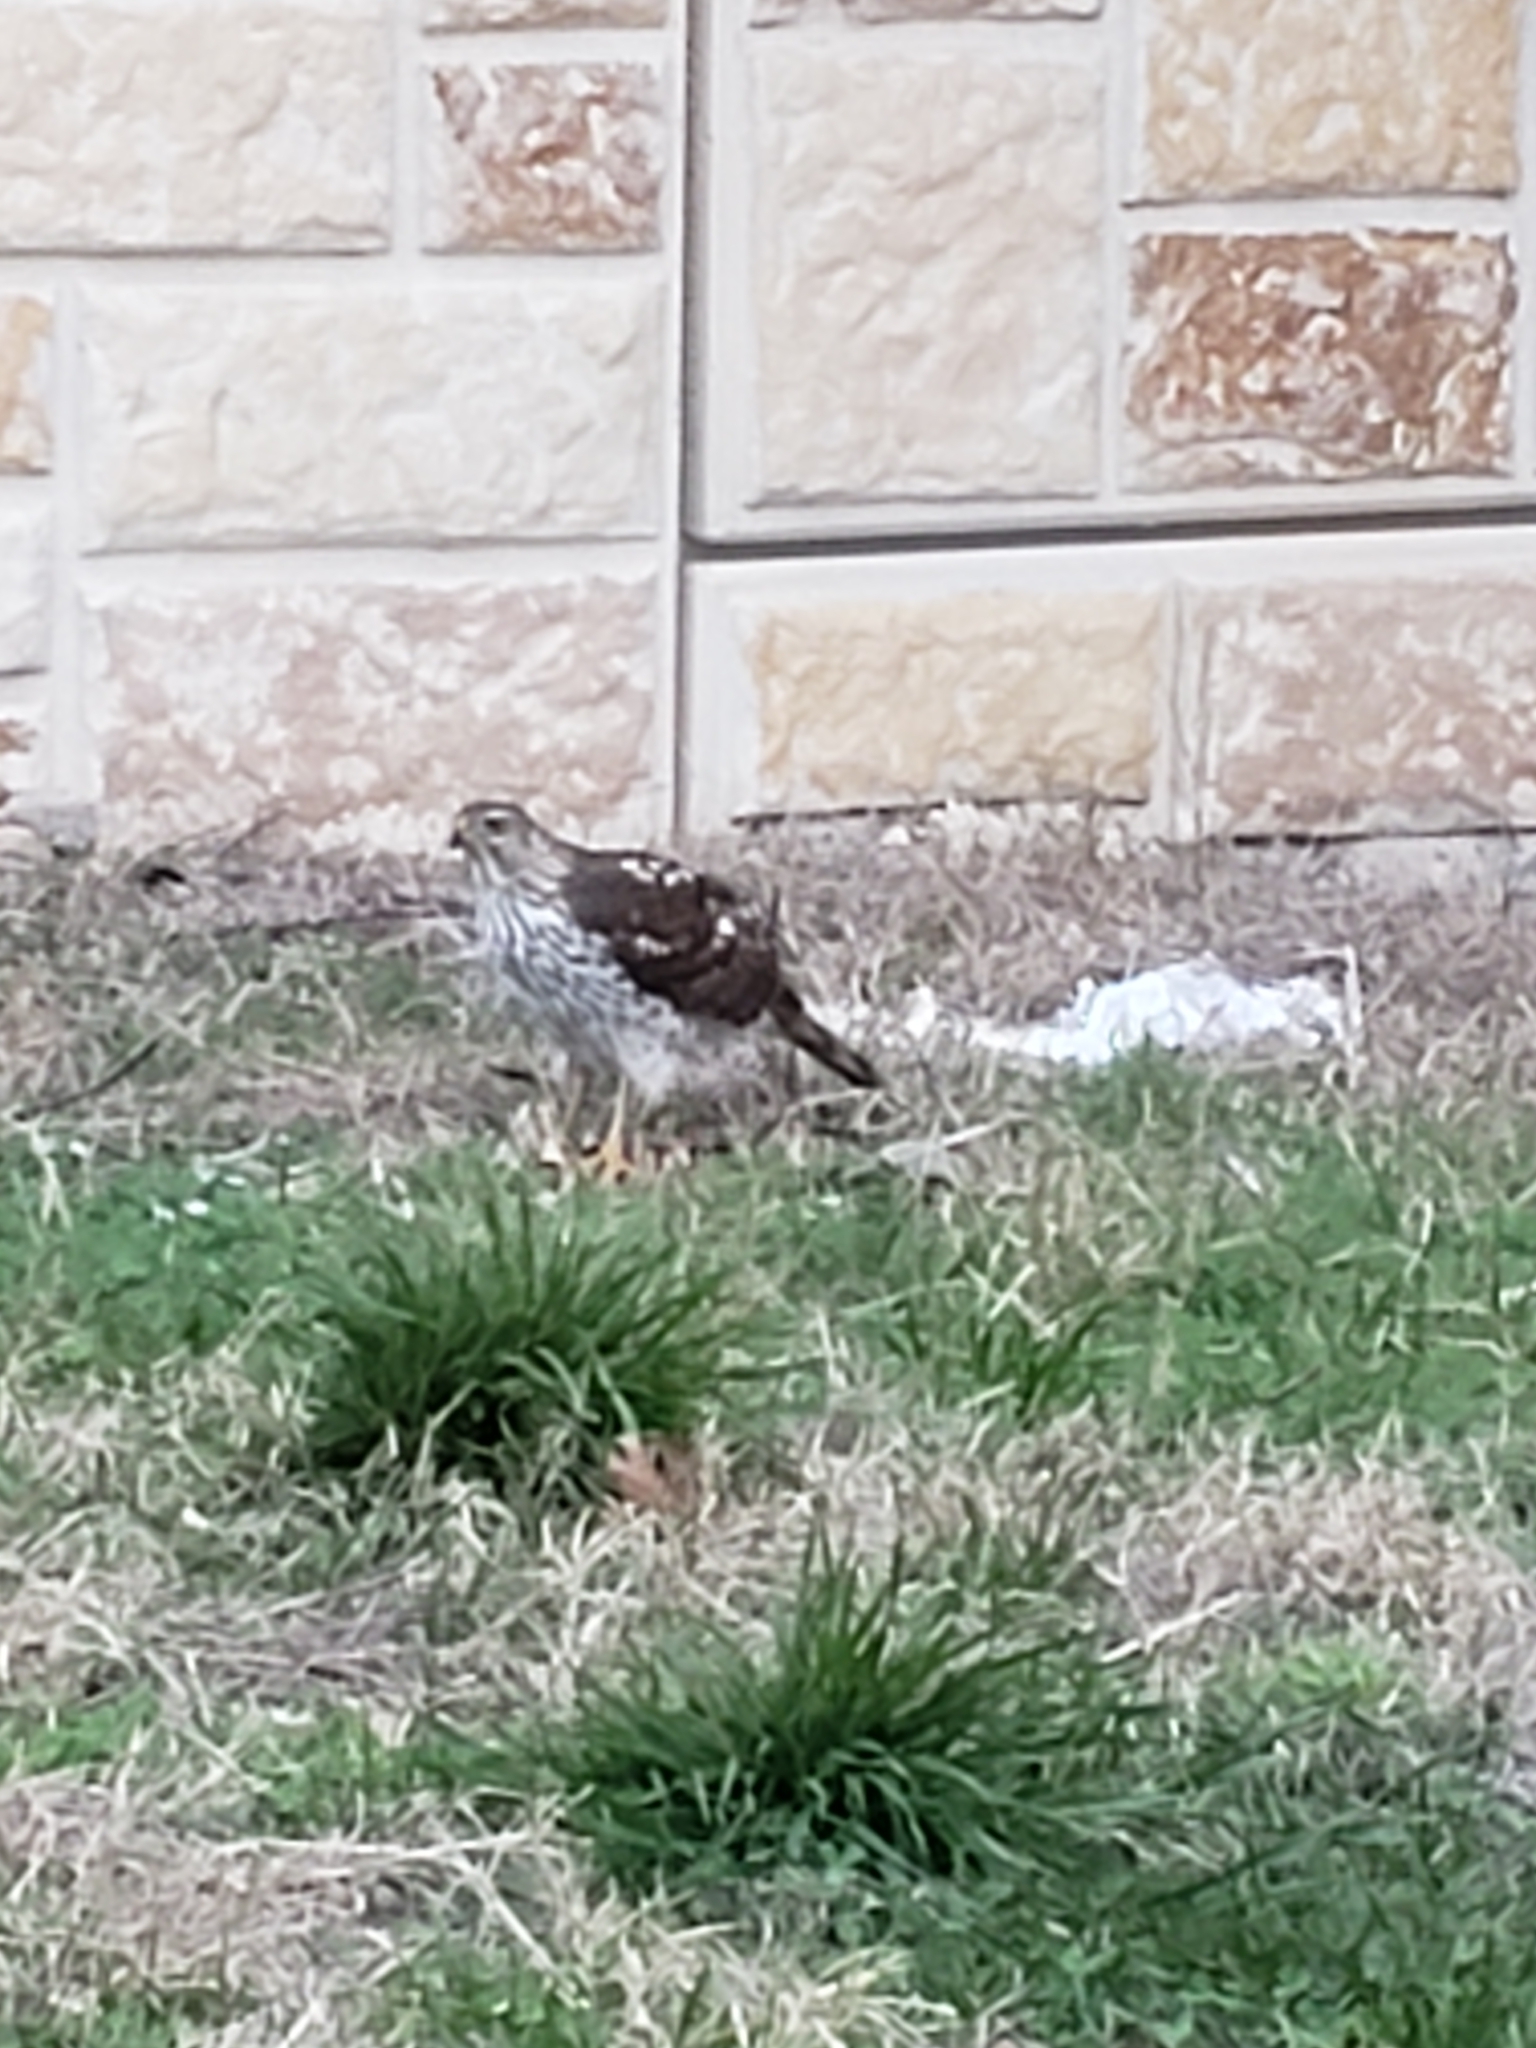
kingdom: Animalia
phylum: Chordata
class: Aves
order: Accipitriformes
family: Accipitridae
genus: Accipiter
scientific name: Accipiter cooperii
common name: Cooper's hawk
